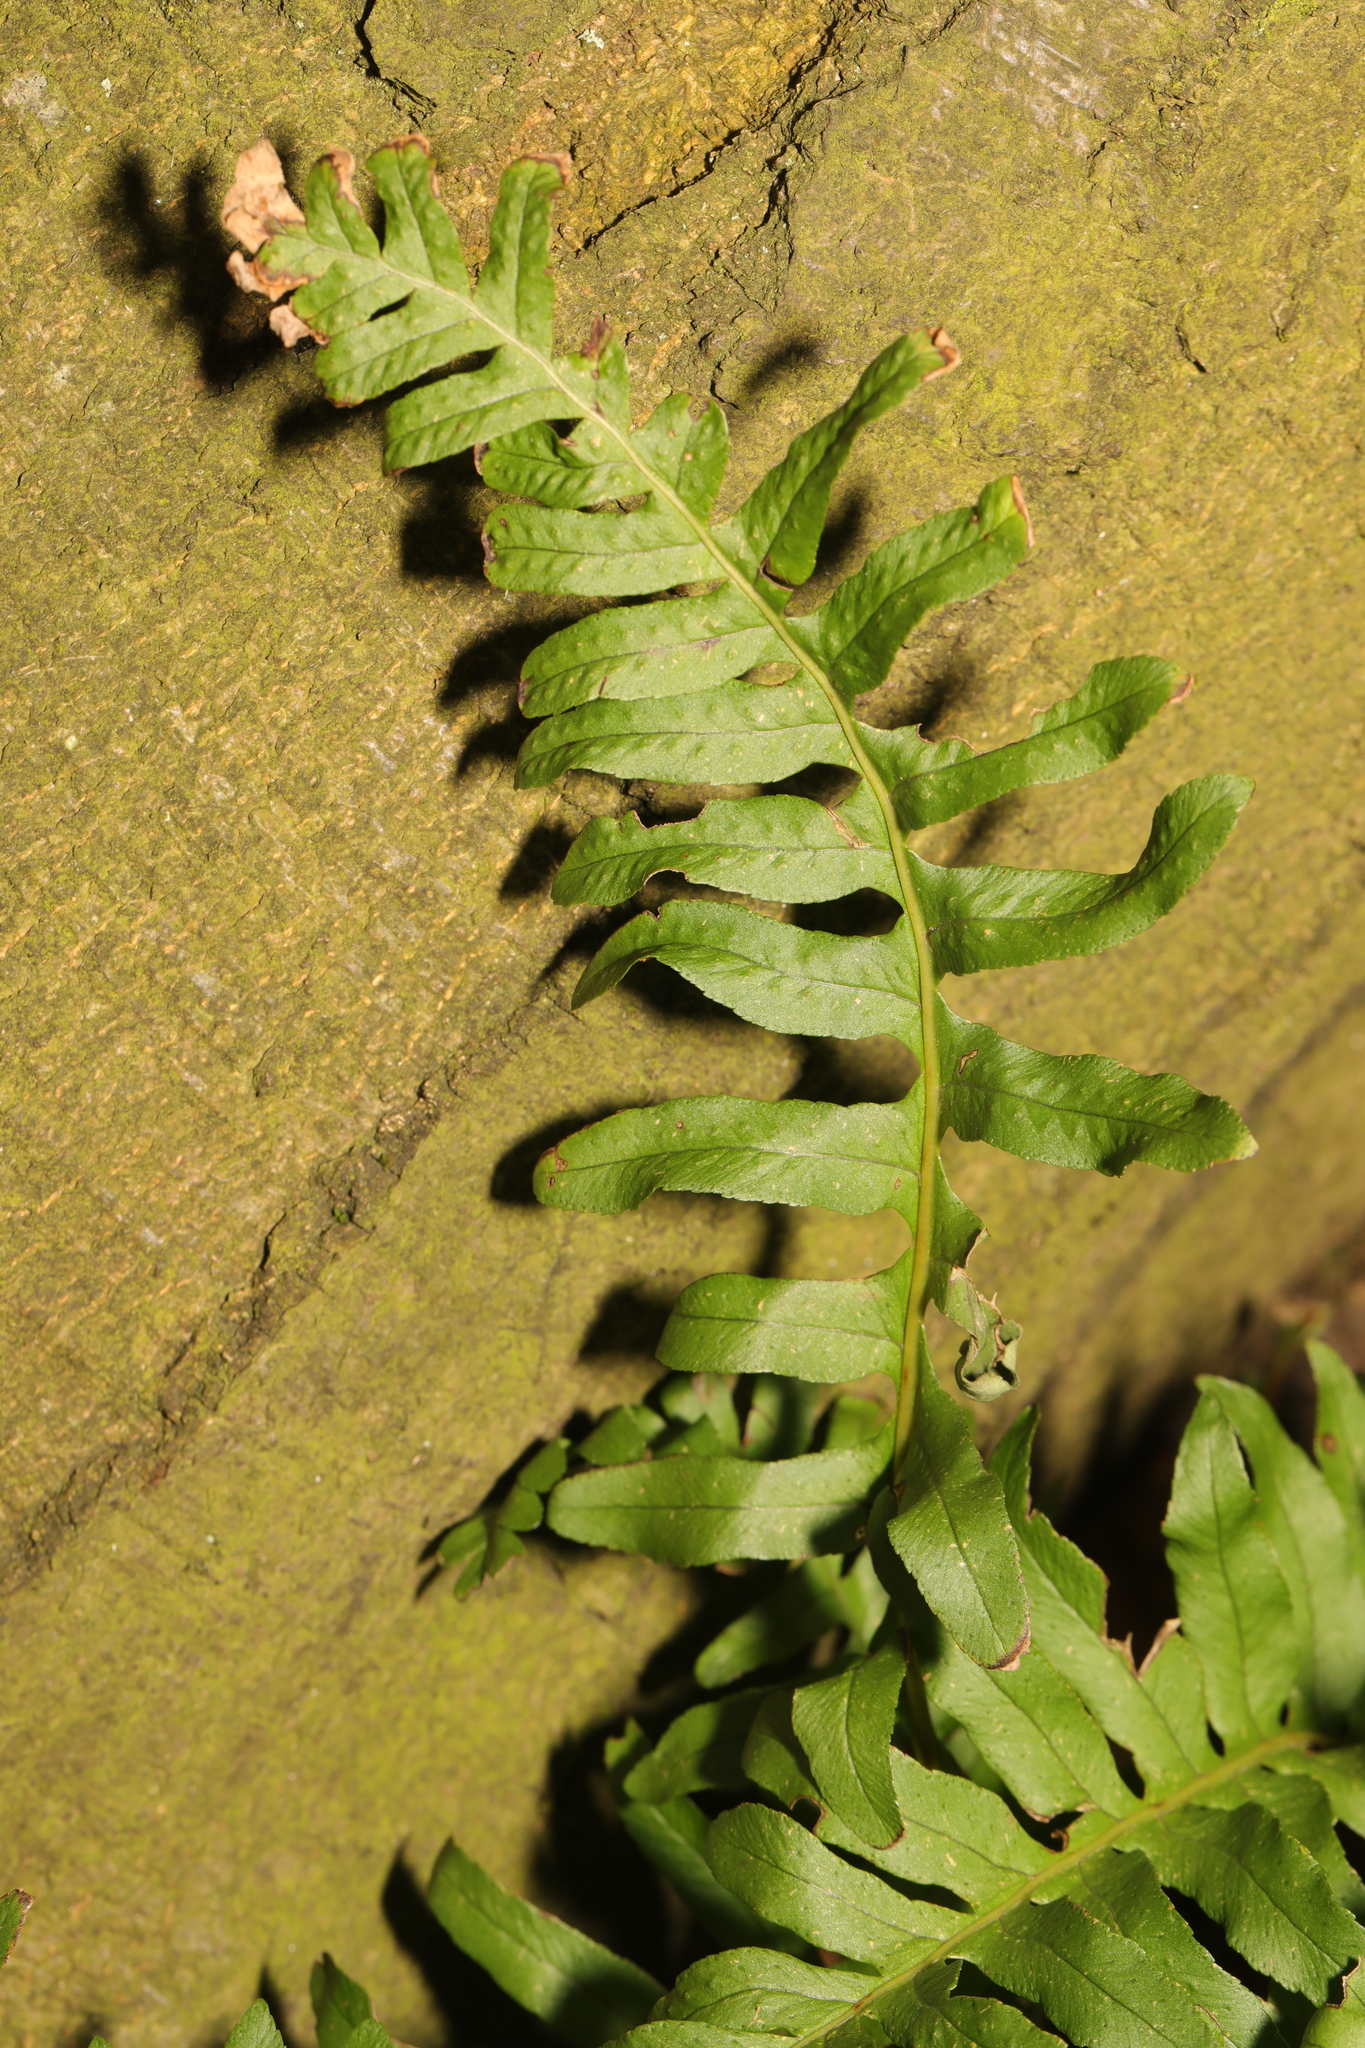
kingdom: Plantae
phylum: Tracheophyta
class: Polypodiopsida
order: Polypodiales
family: Polypodiaceae
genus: Polypodium
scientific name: Polypodium vulgare
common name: Common polypody
